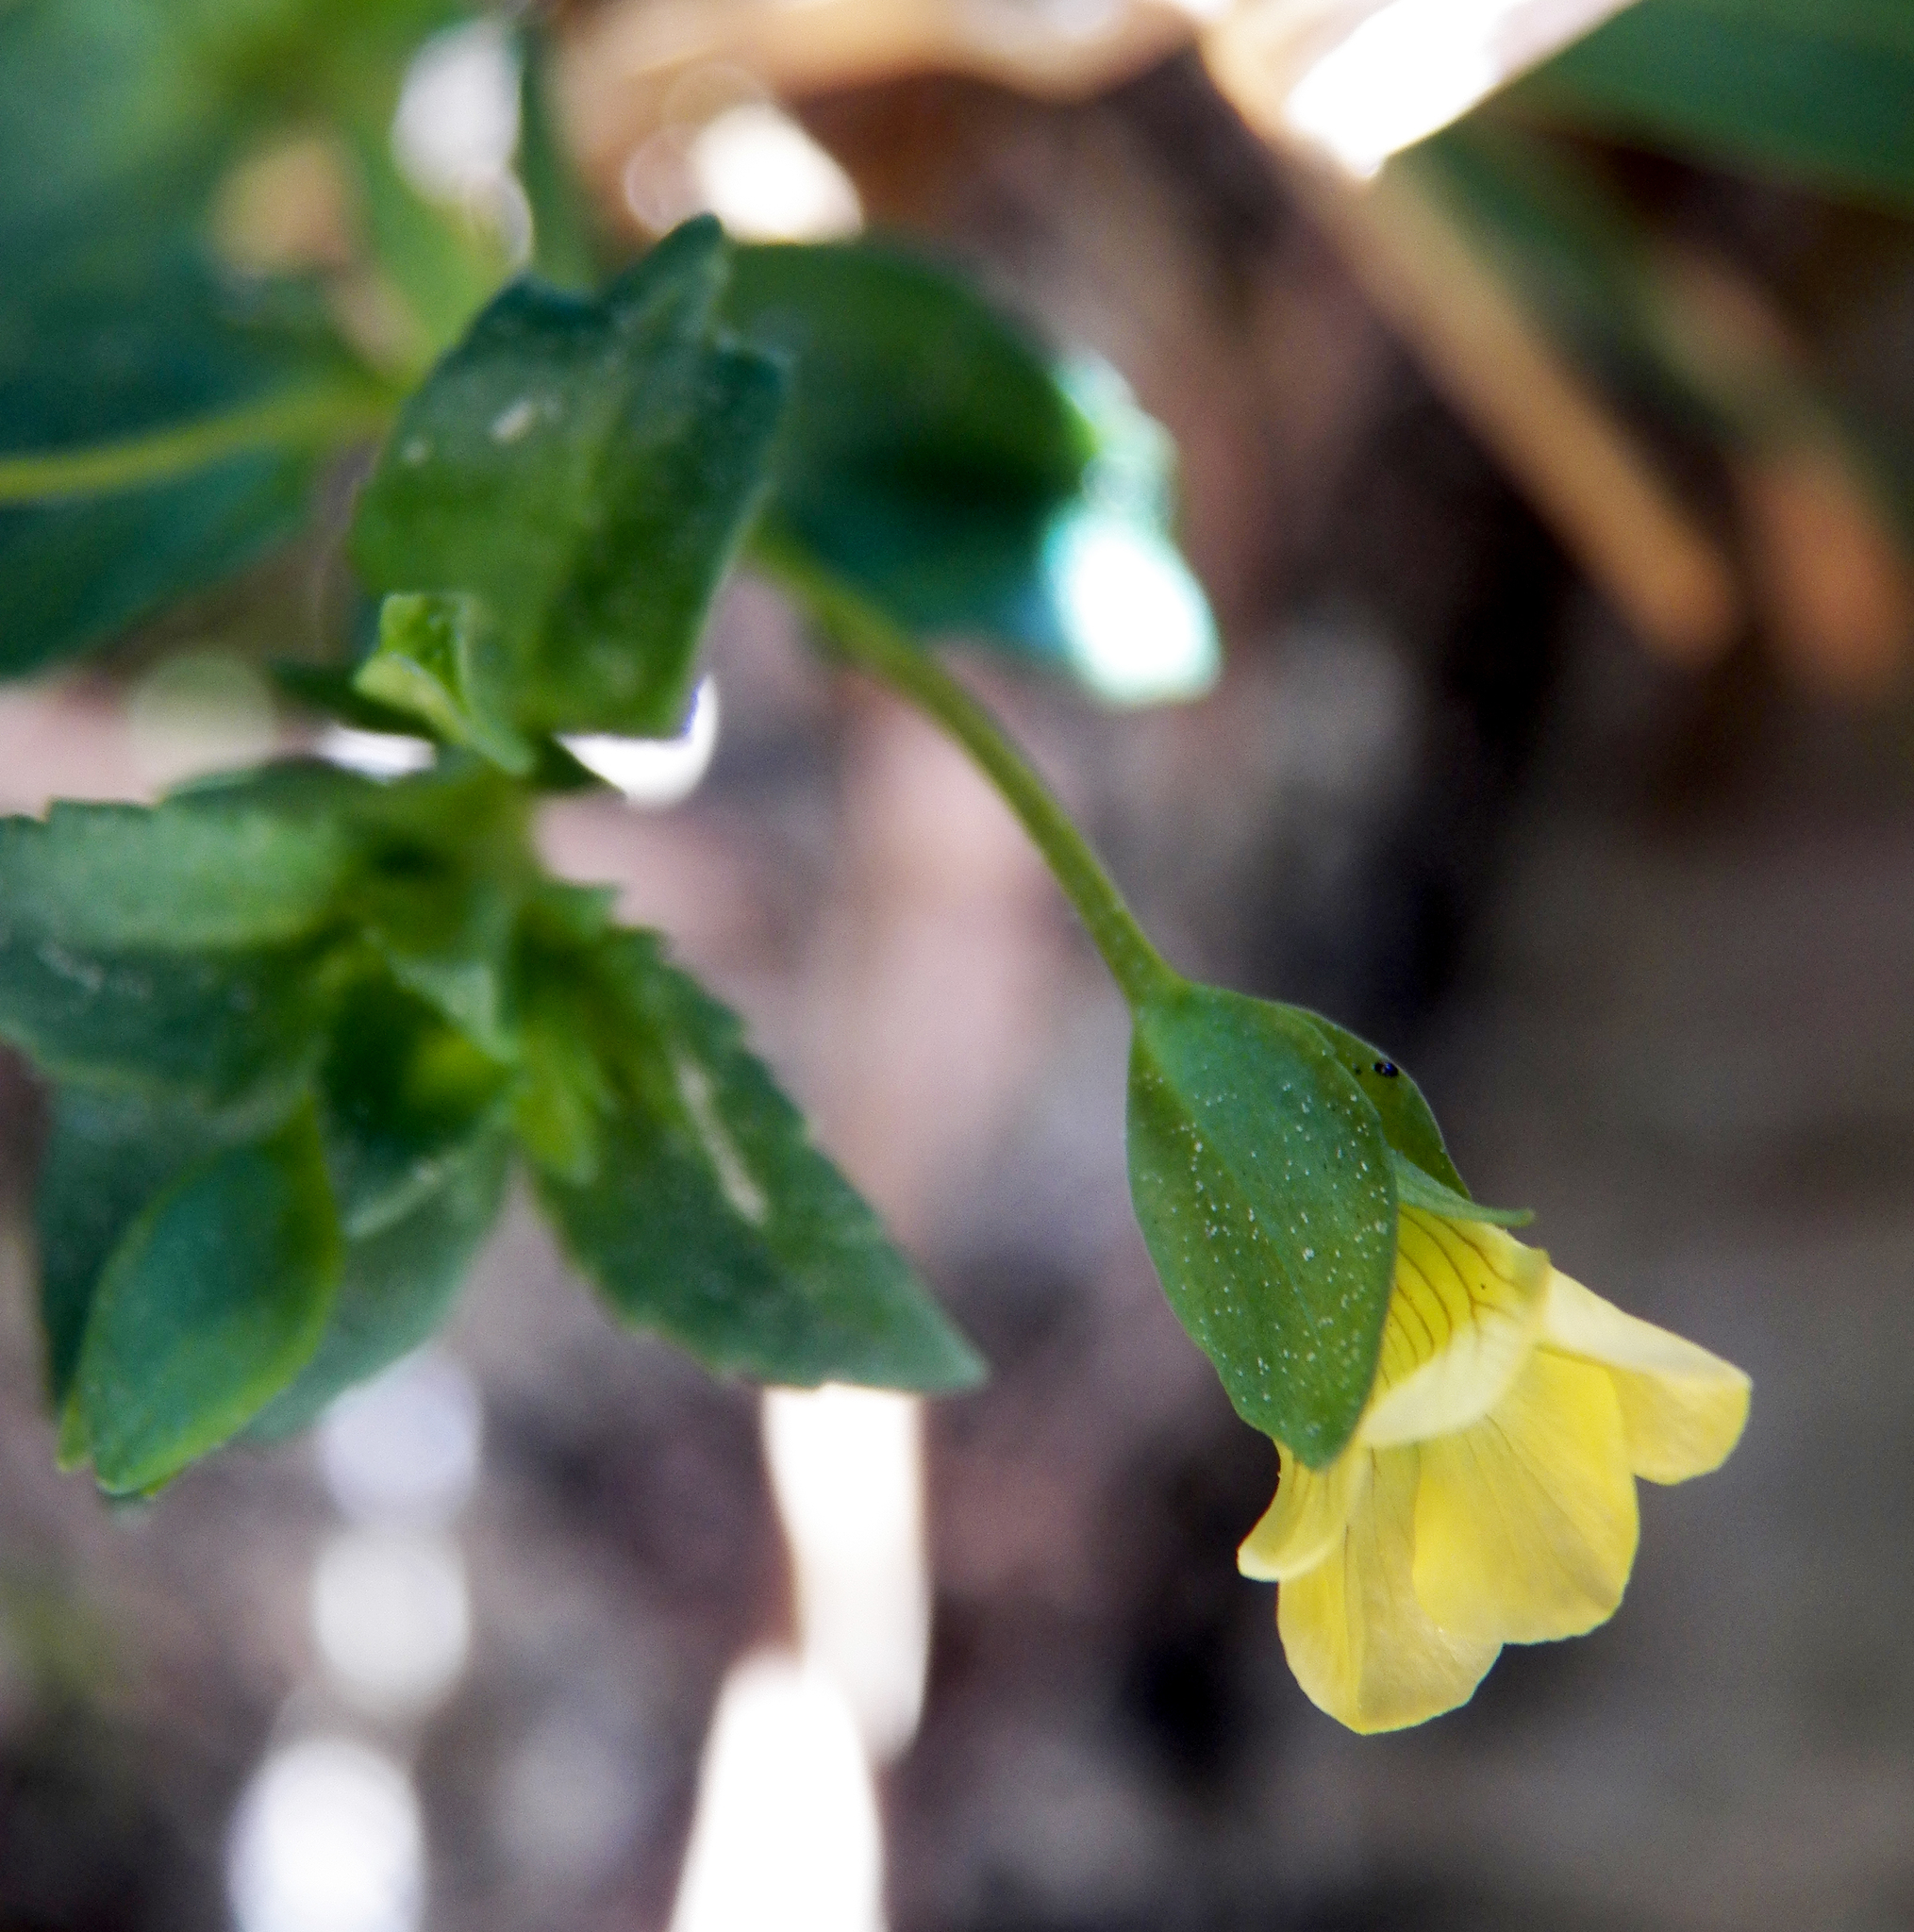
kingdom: Plantae
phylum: Tracheophyta
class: Magnoliopsida
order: Lamiales
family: Plantaginaceae
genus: Mecardonia
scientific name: Mecardonia procumbens
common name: Baby jump-up
